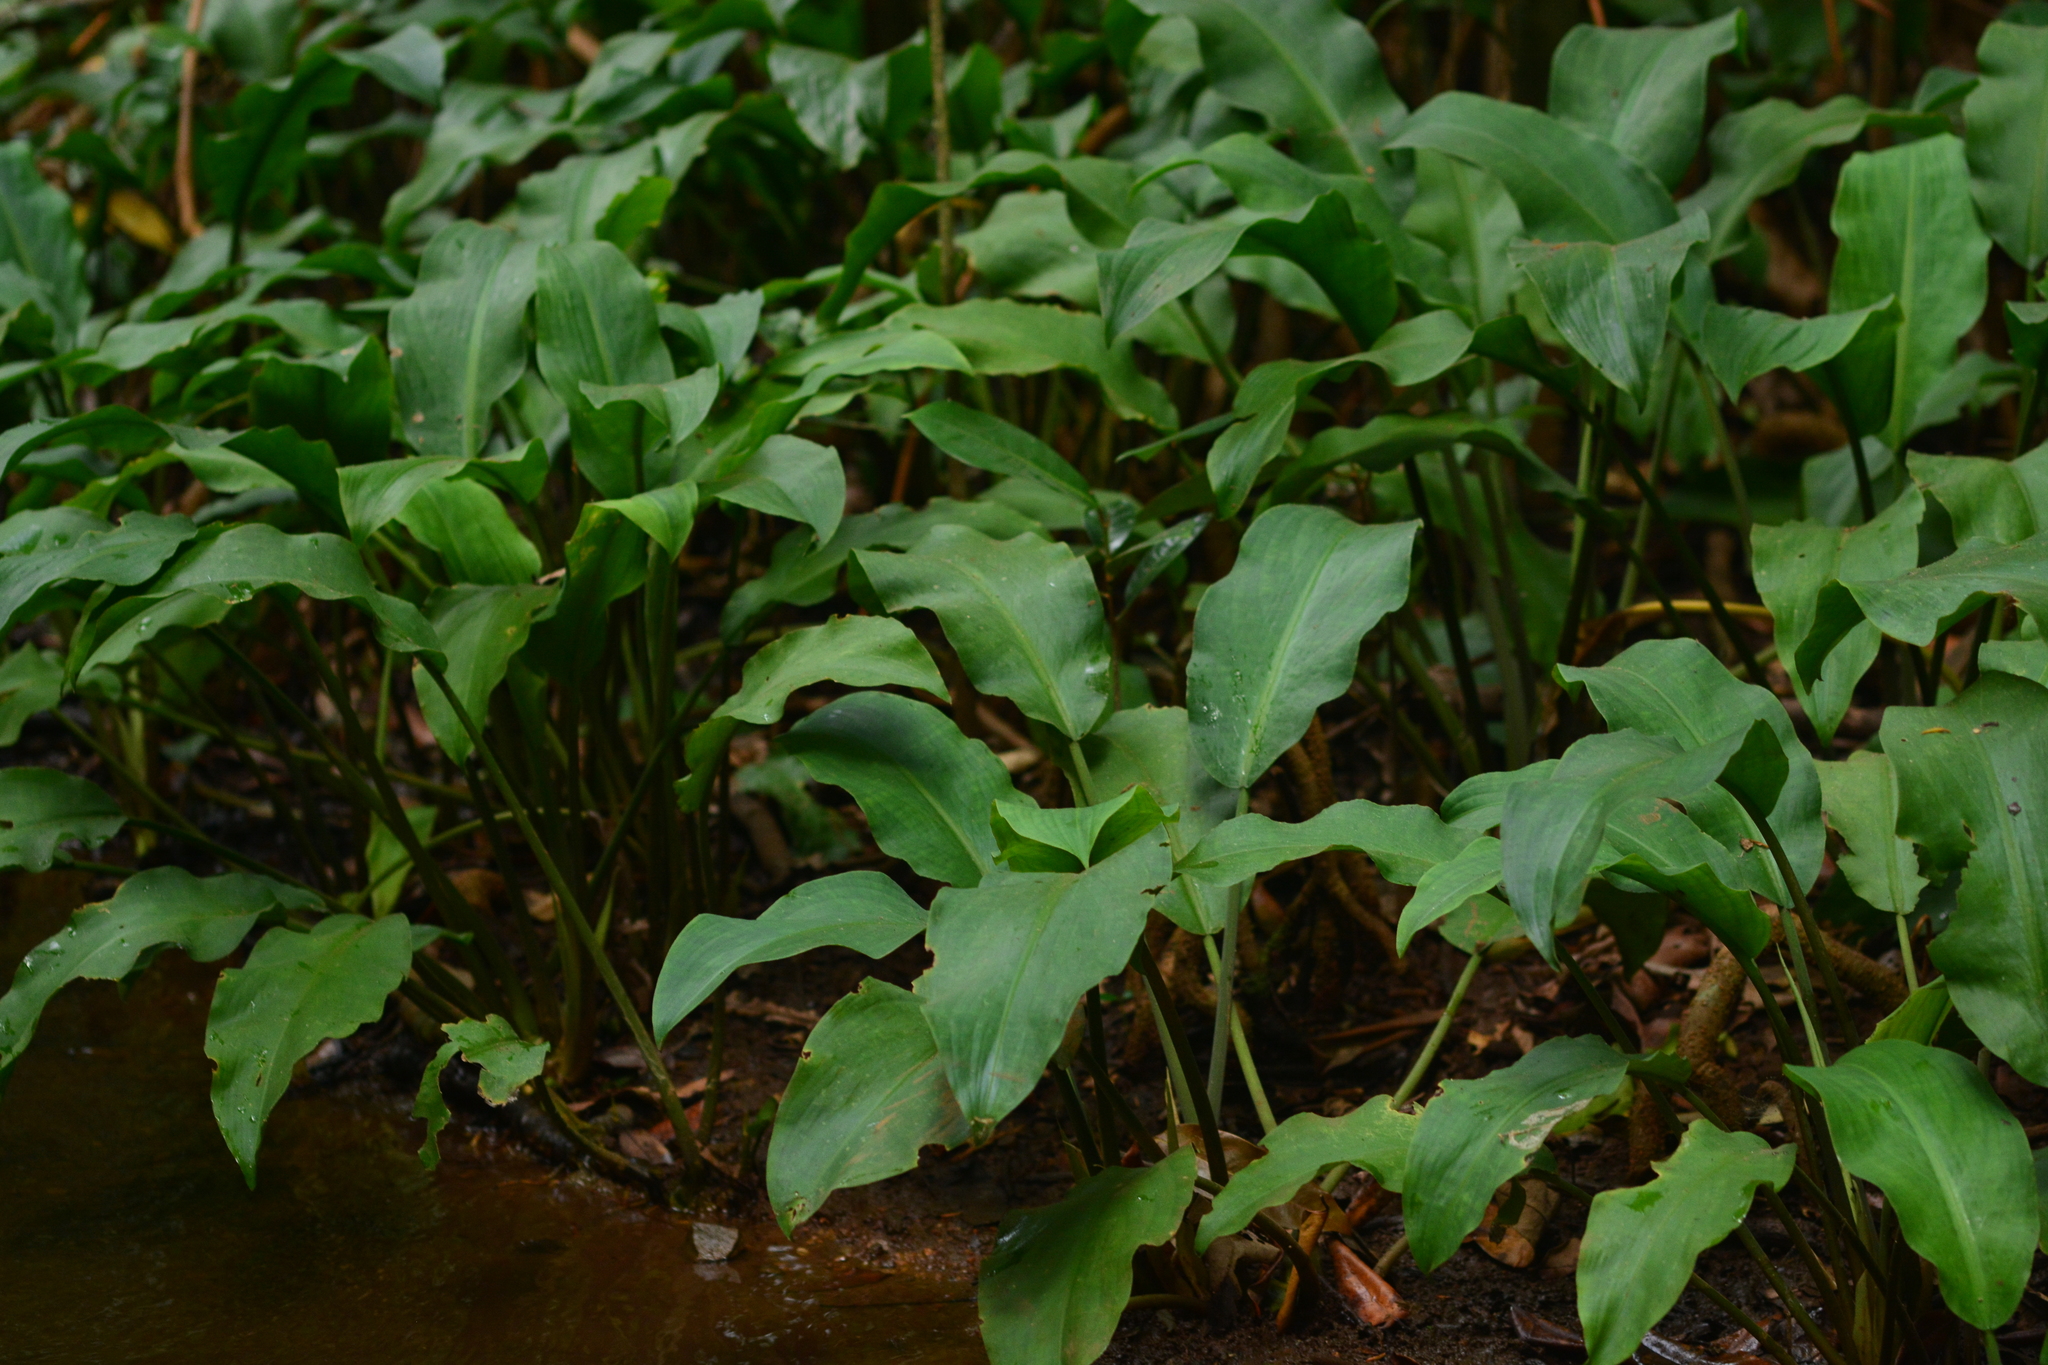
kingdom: Plantae
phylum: Tracheophyta
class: Liliopsida
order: Alismatales
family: Araceae
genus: Lagenandra
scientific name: Lagenandra toxicaria
